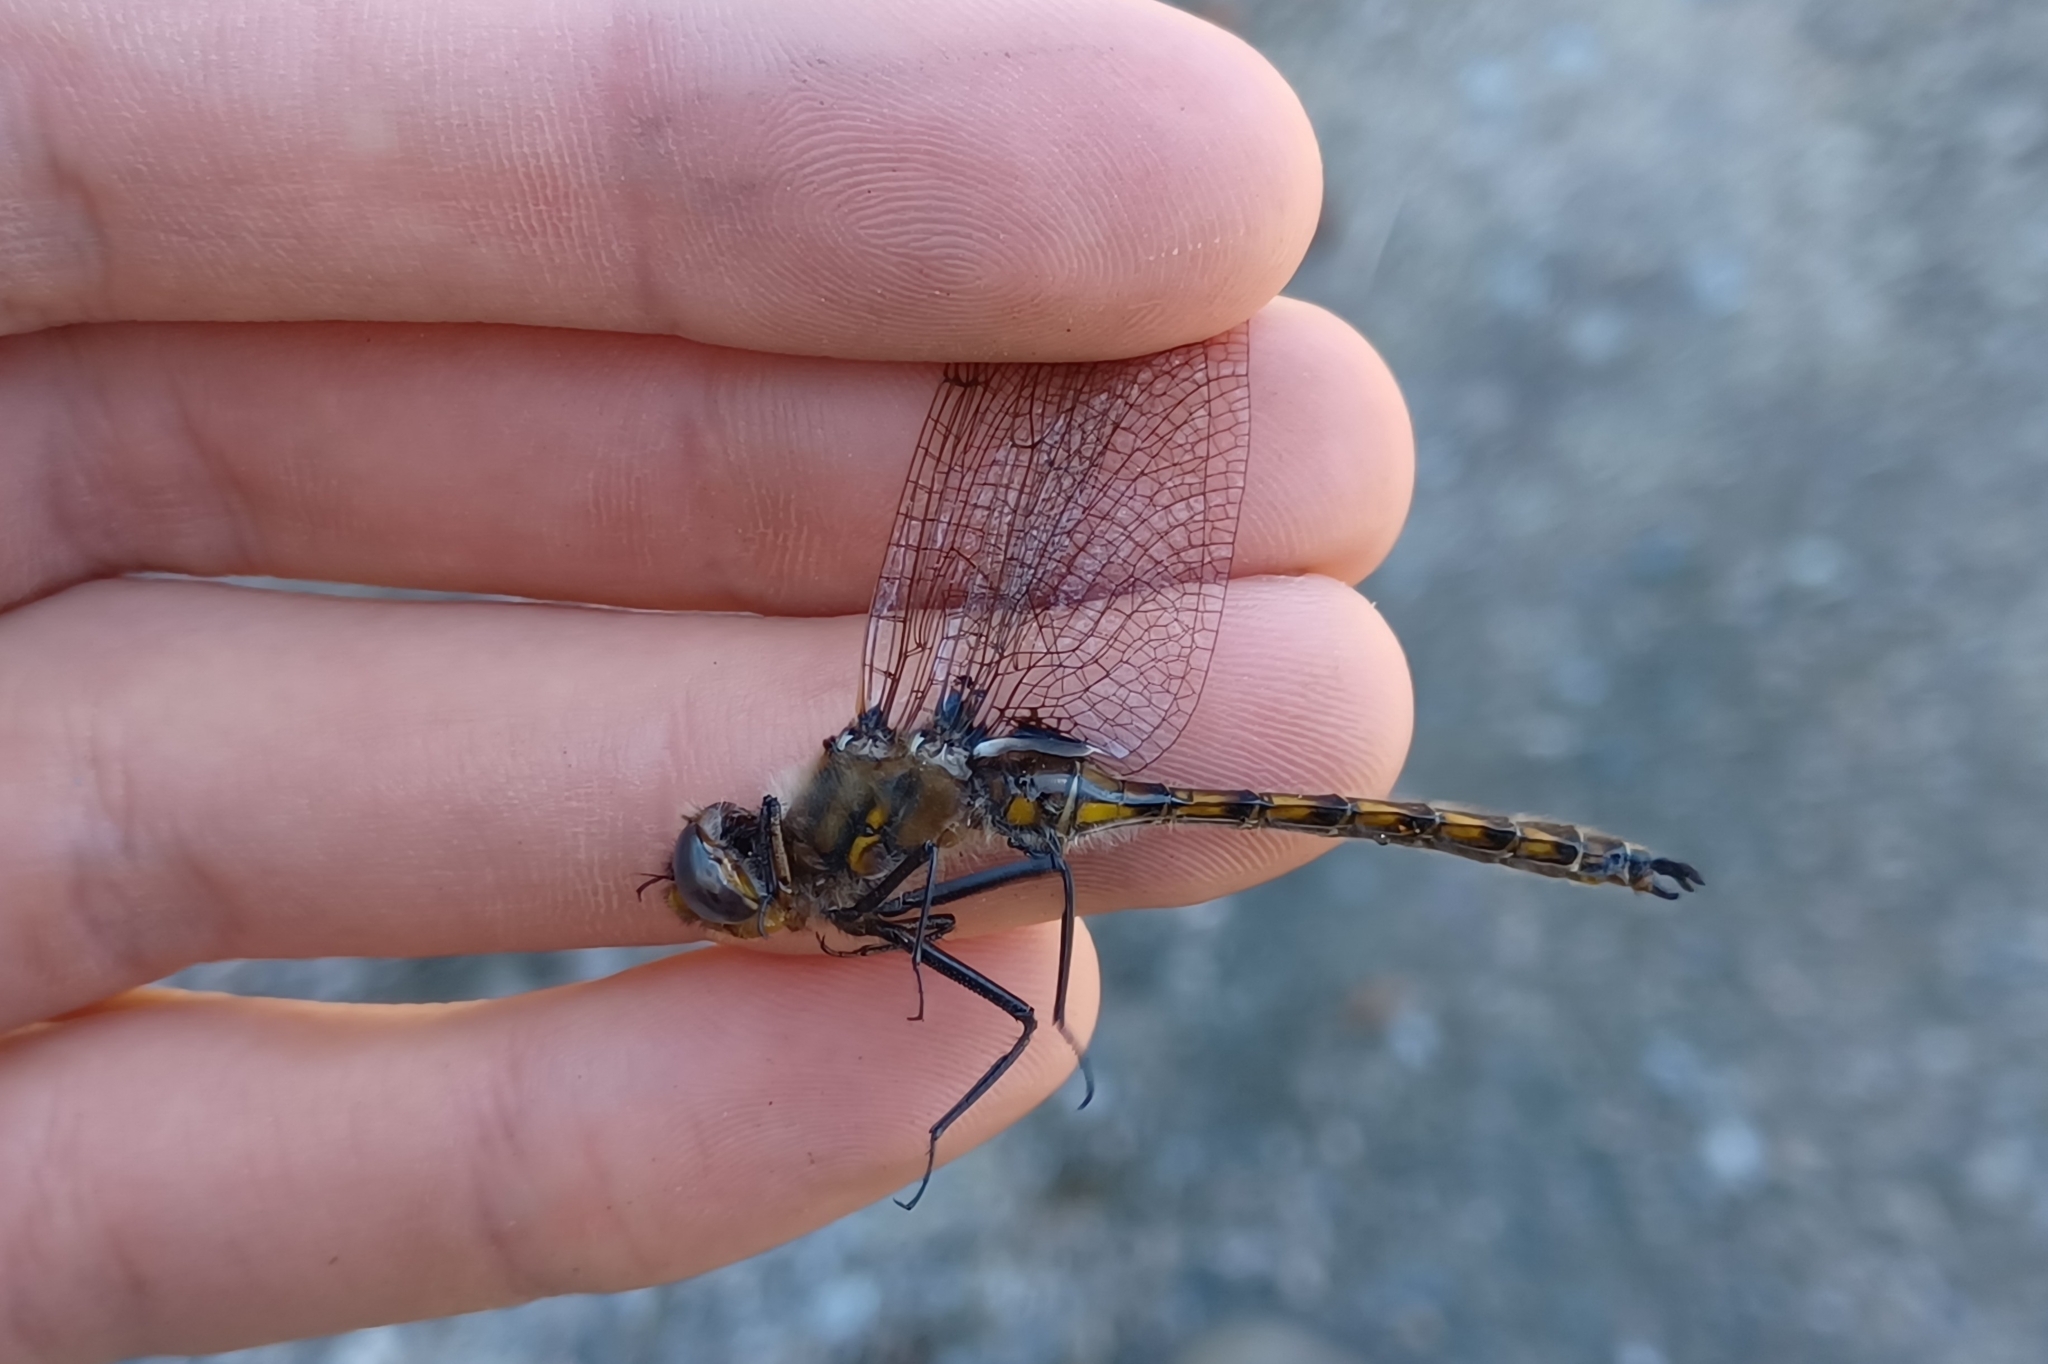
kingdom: Animalia
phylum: Arthropoda
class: Insecta
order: Odonata
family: Corduliidae
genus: Epitheca
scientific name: Epitheca canis
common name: Beaverpond baskettail
